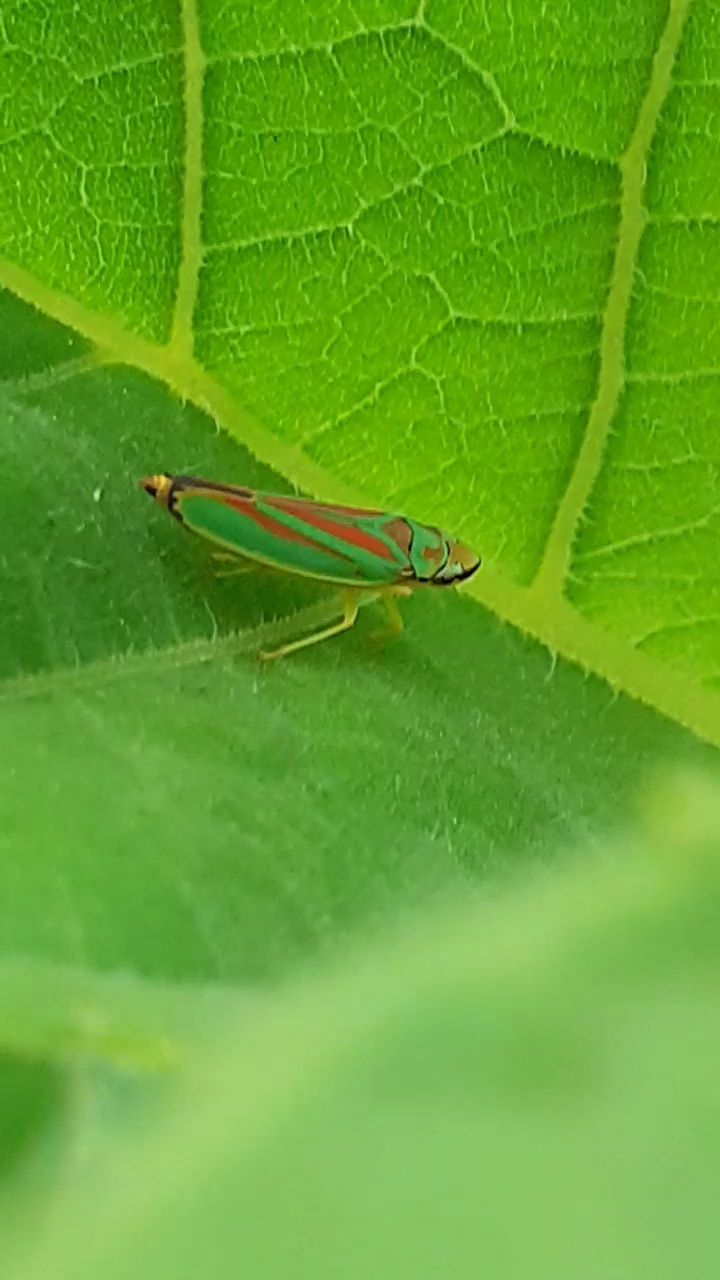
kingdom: Animalia
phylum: Arthropoda
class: Insecta
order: Hemiptera
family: Cicadellidae
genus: Graphocephala
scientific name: Graphocephala fennahi
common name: Rhododendron leafhopper
